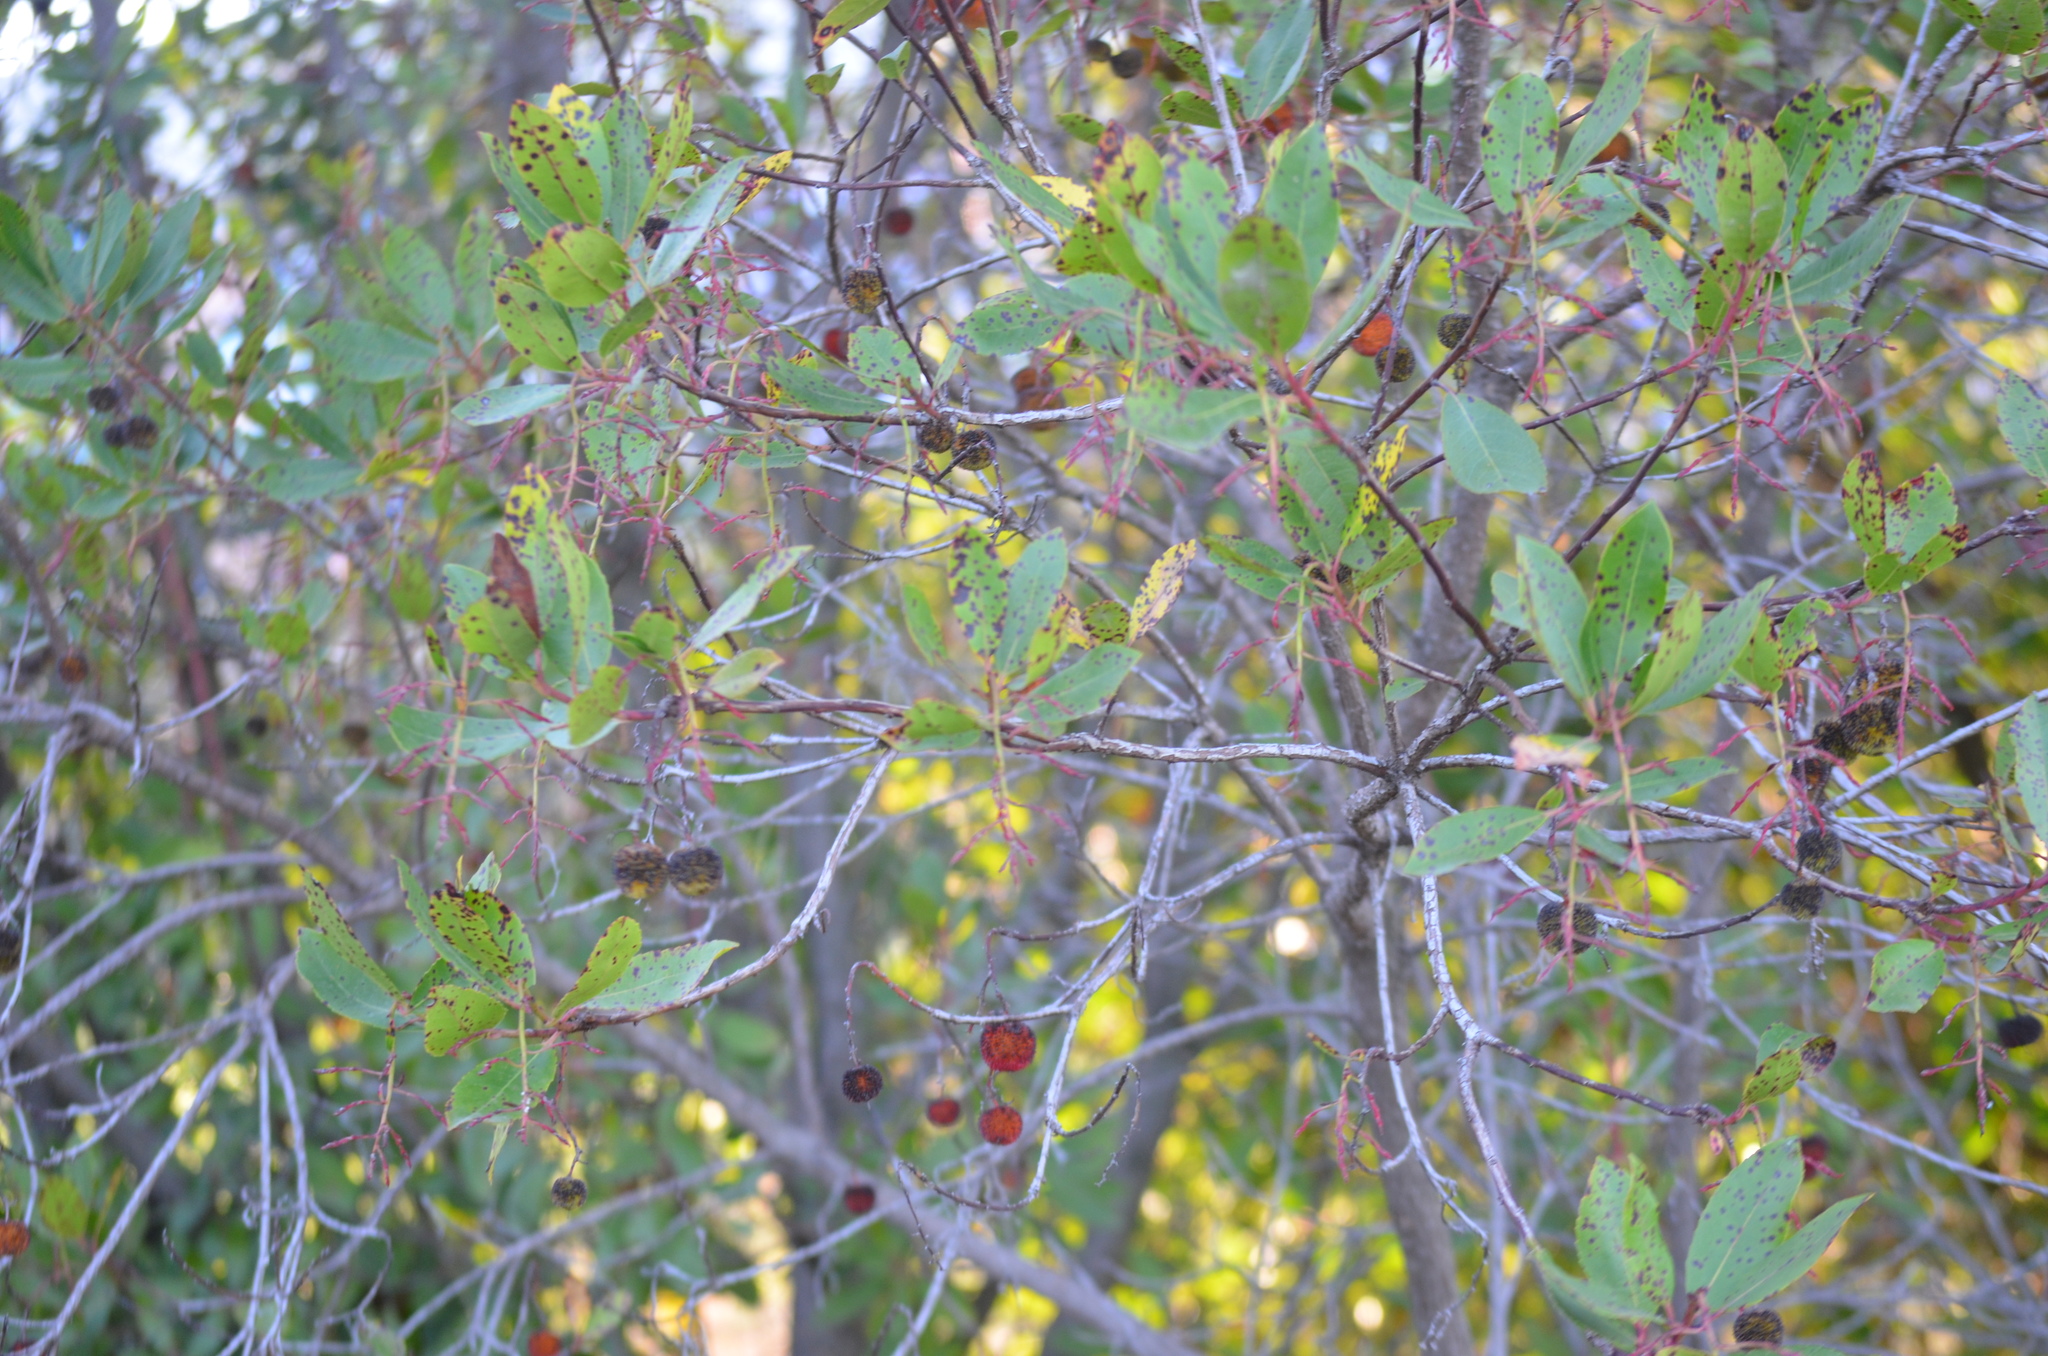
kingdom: Plantae
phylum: Tracheophyta
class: Magnoliopsida
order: Ericales
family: Ericaceae
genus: Arbutus
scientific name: Arbutus unedo
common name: Strawberry-tree
